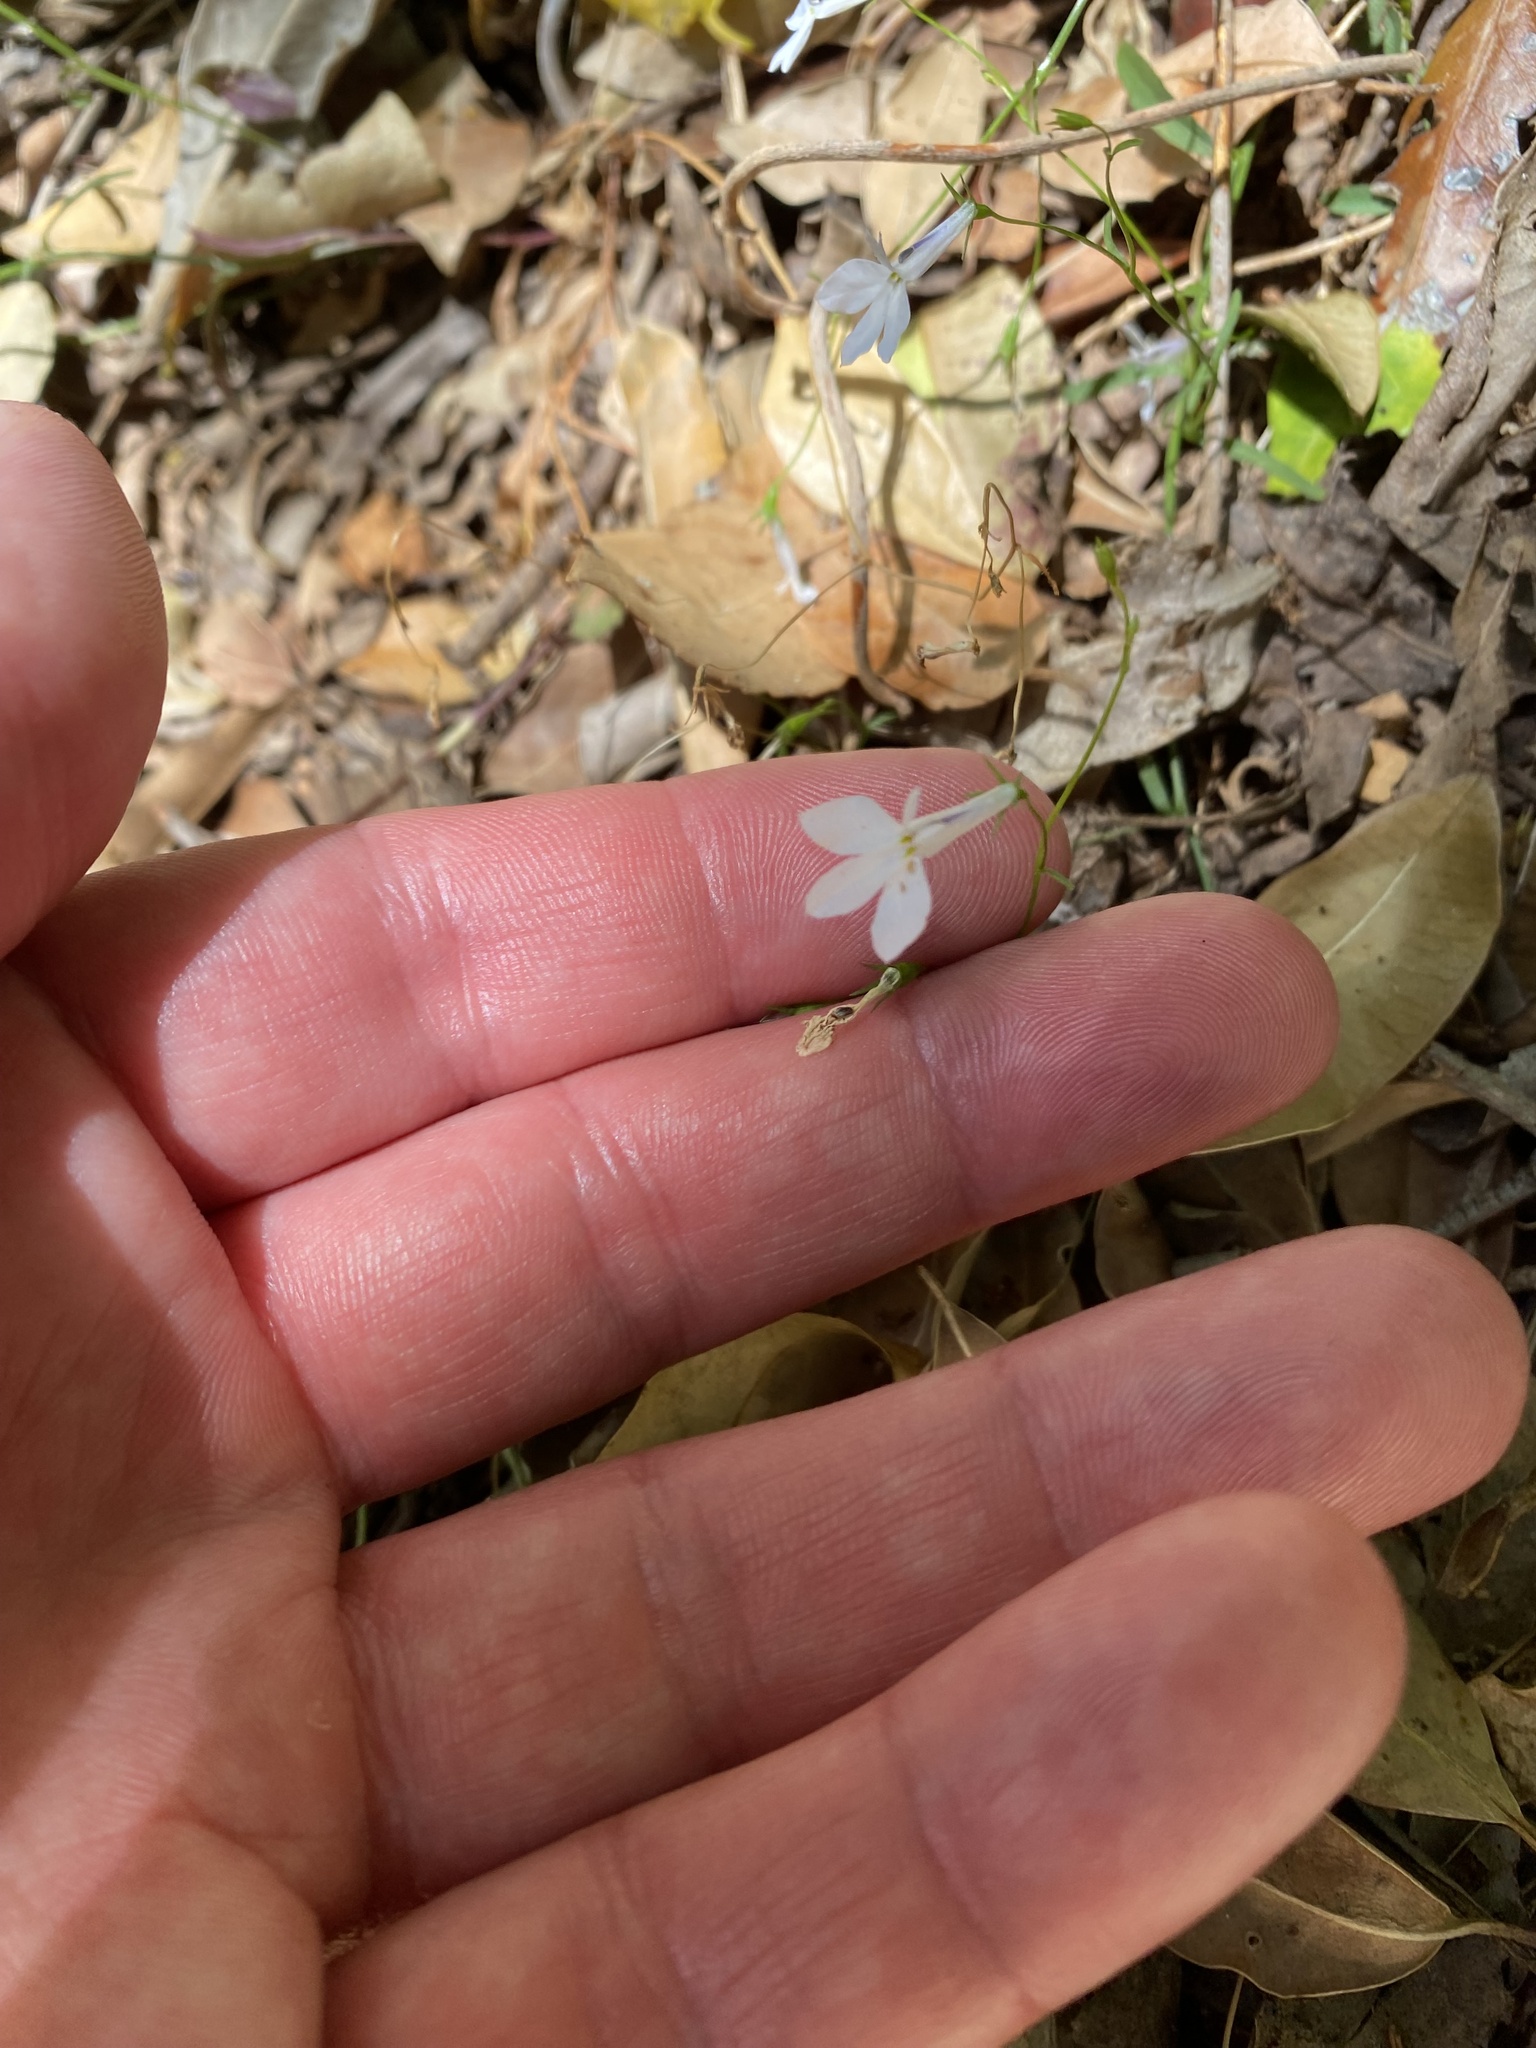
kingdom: Plantae
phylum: Tracheophyta
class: Magnoliopsida
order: Asterales
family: Campanulaceae
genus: Lobelia
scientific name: Lobelia erinus
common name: Edging lobelia
